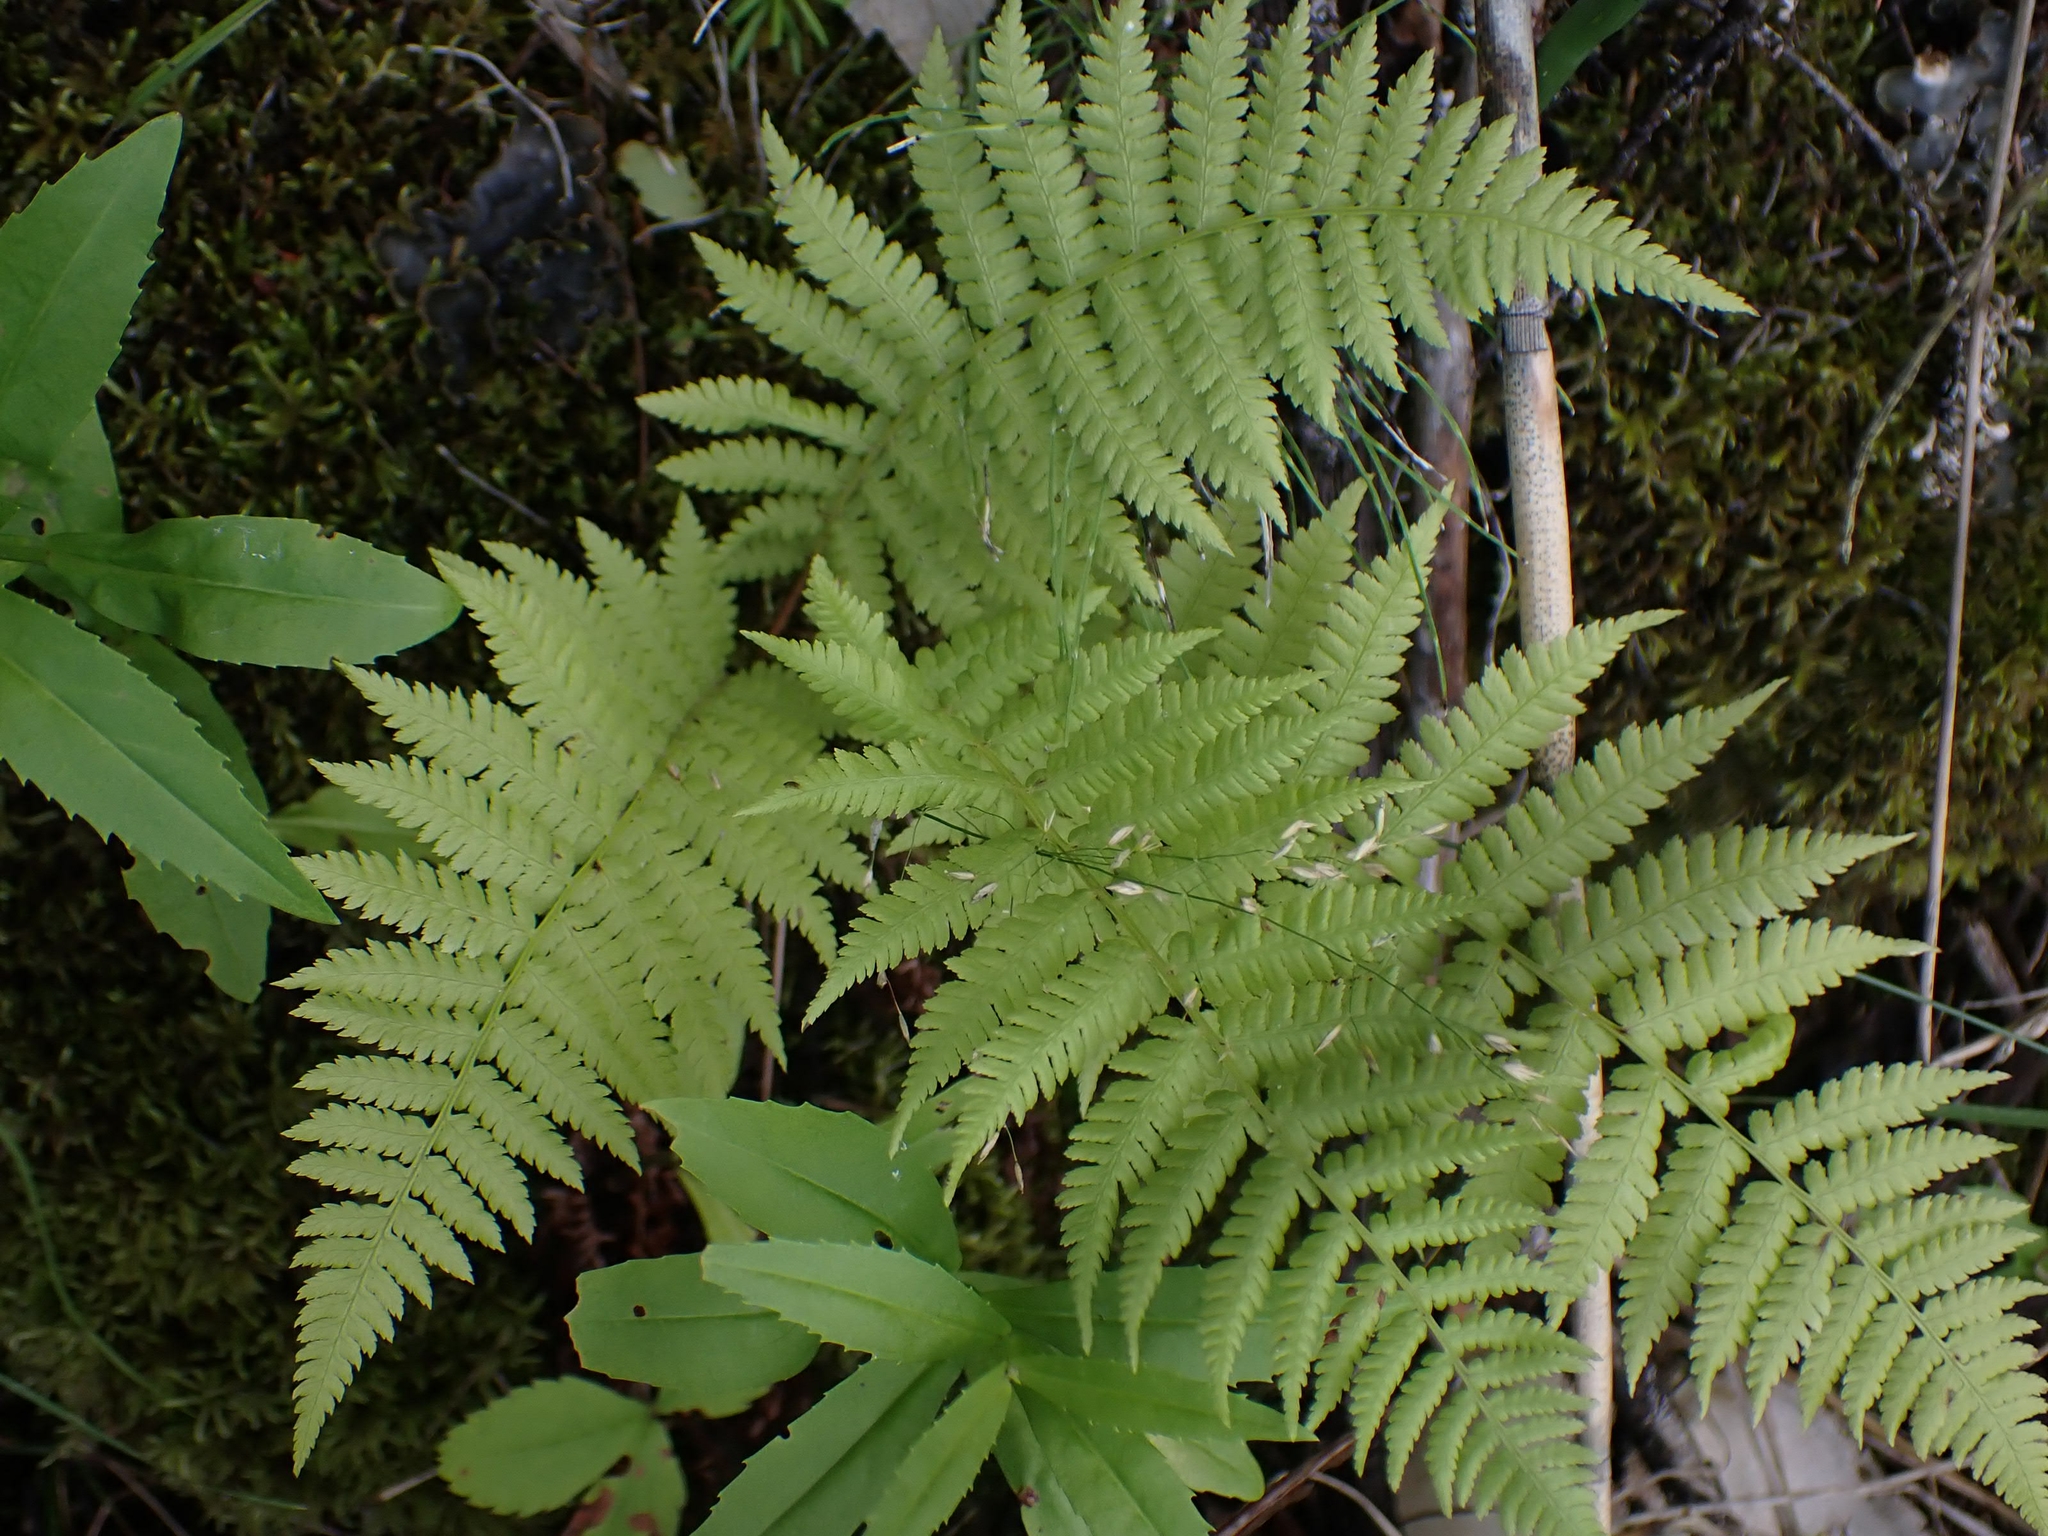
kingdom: Plantae
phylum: Tracheophyta
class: Polypodiopsida
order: Polypodiales
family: Athyriaceae
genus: Athyrium
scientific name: Athyrium angustum
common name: Northern lady fern
